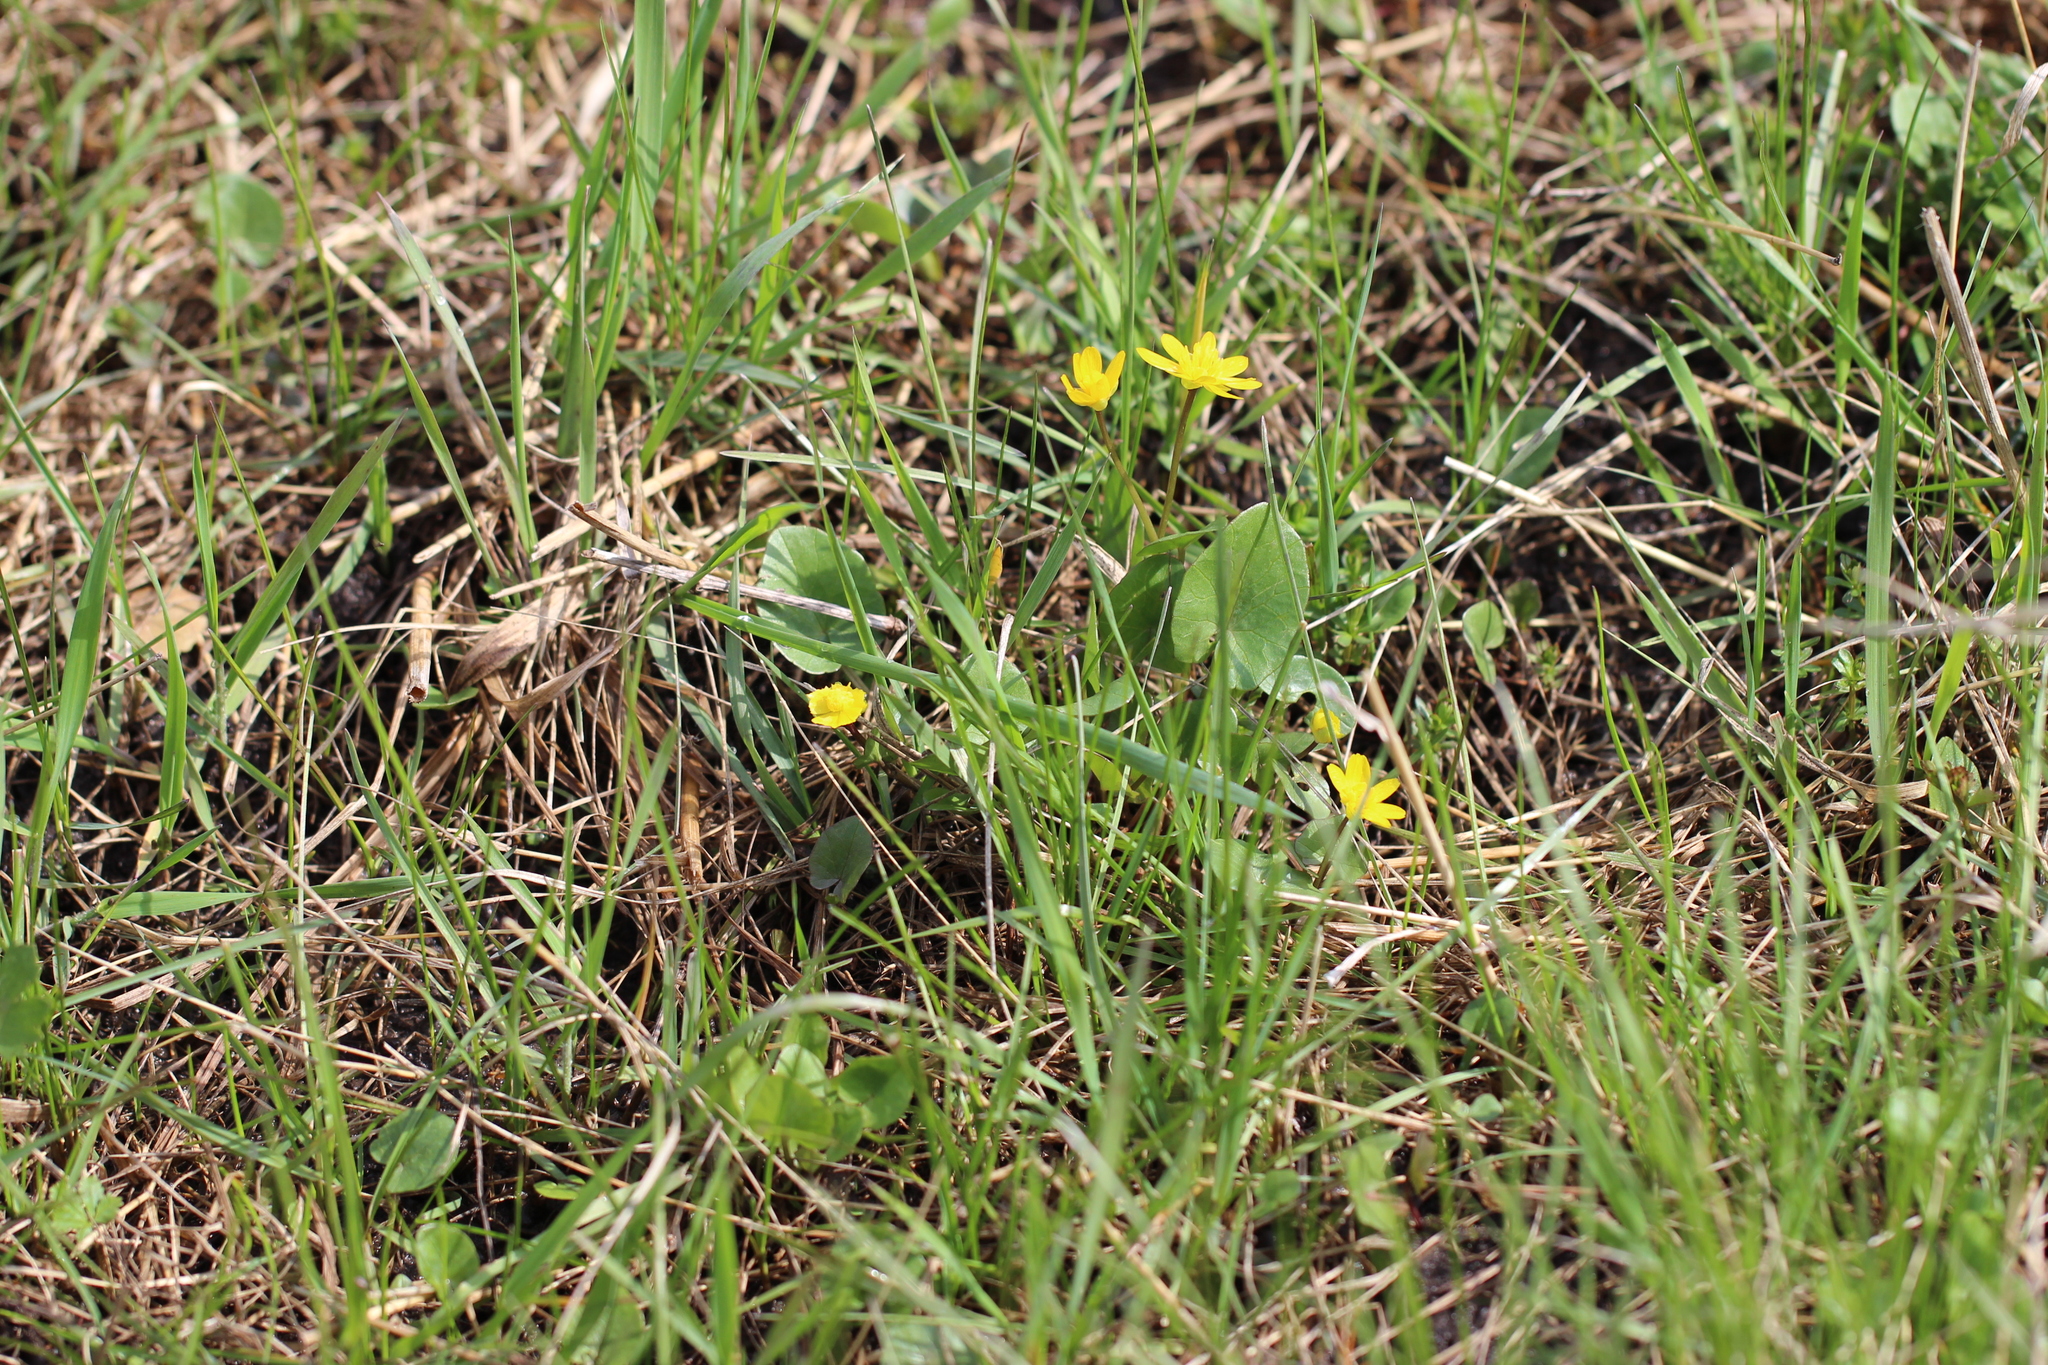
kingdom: Plantae
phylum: Tracheophyta
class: Magnoliopsida
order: Ranunculales
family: Ranunculaceae
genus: Ficaria
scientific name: Ficaria verna
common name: Lesser celandine
